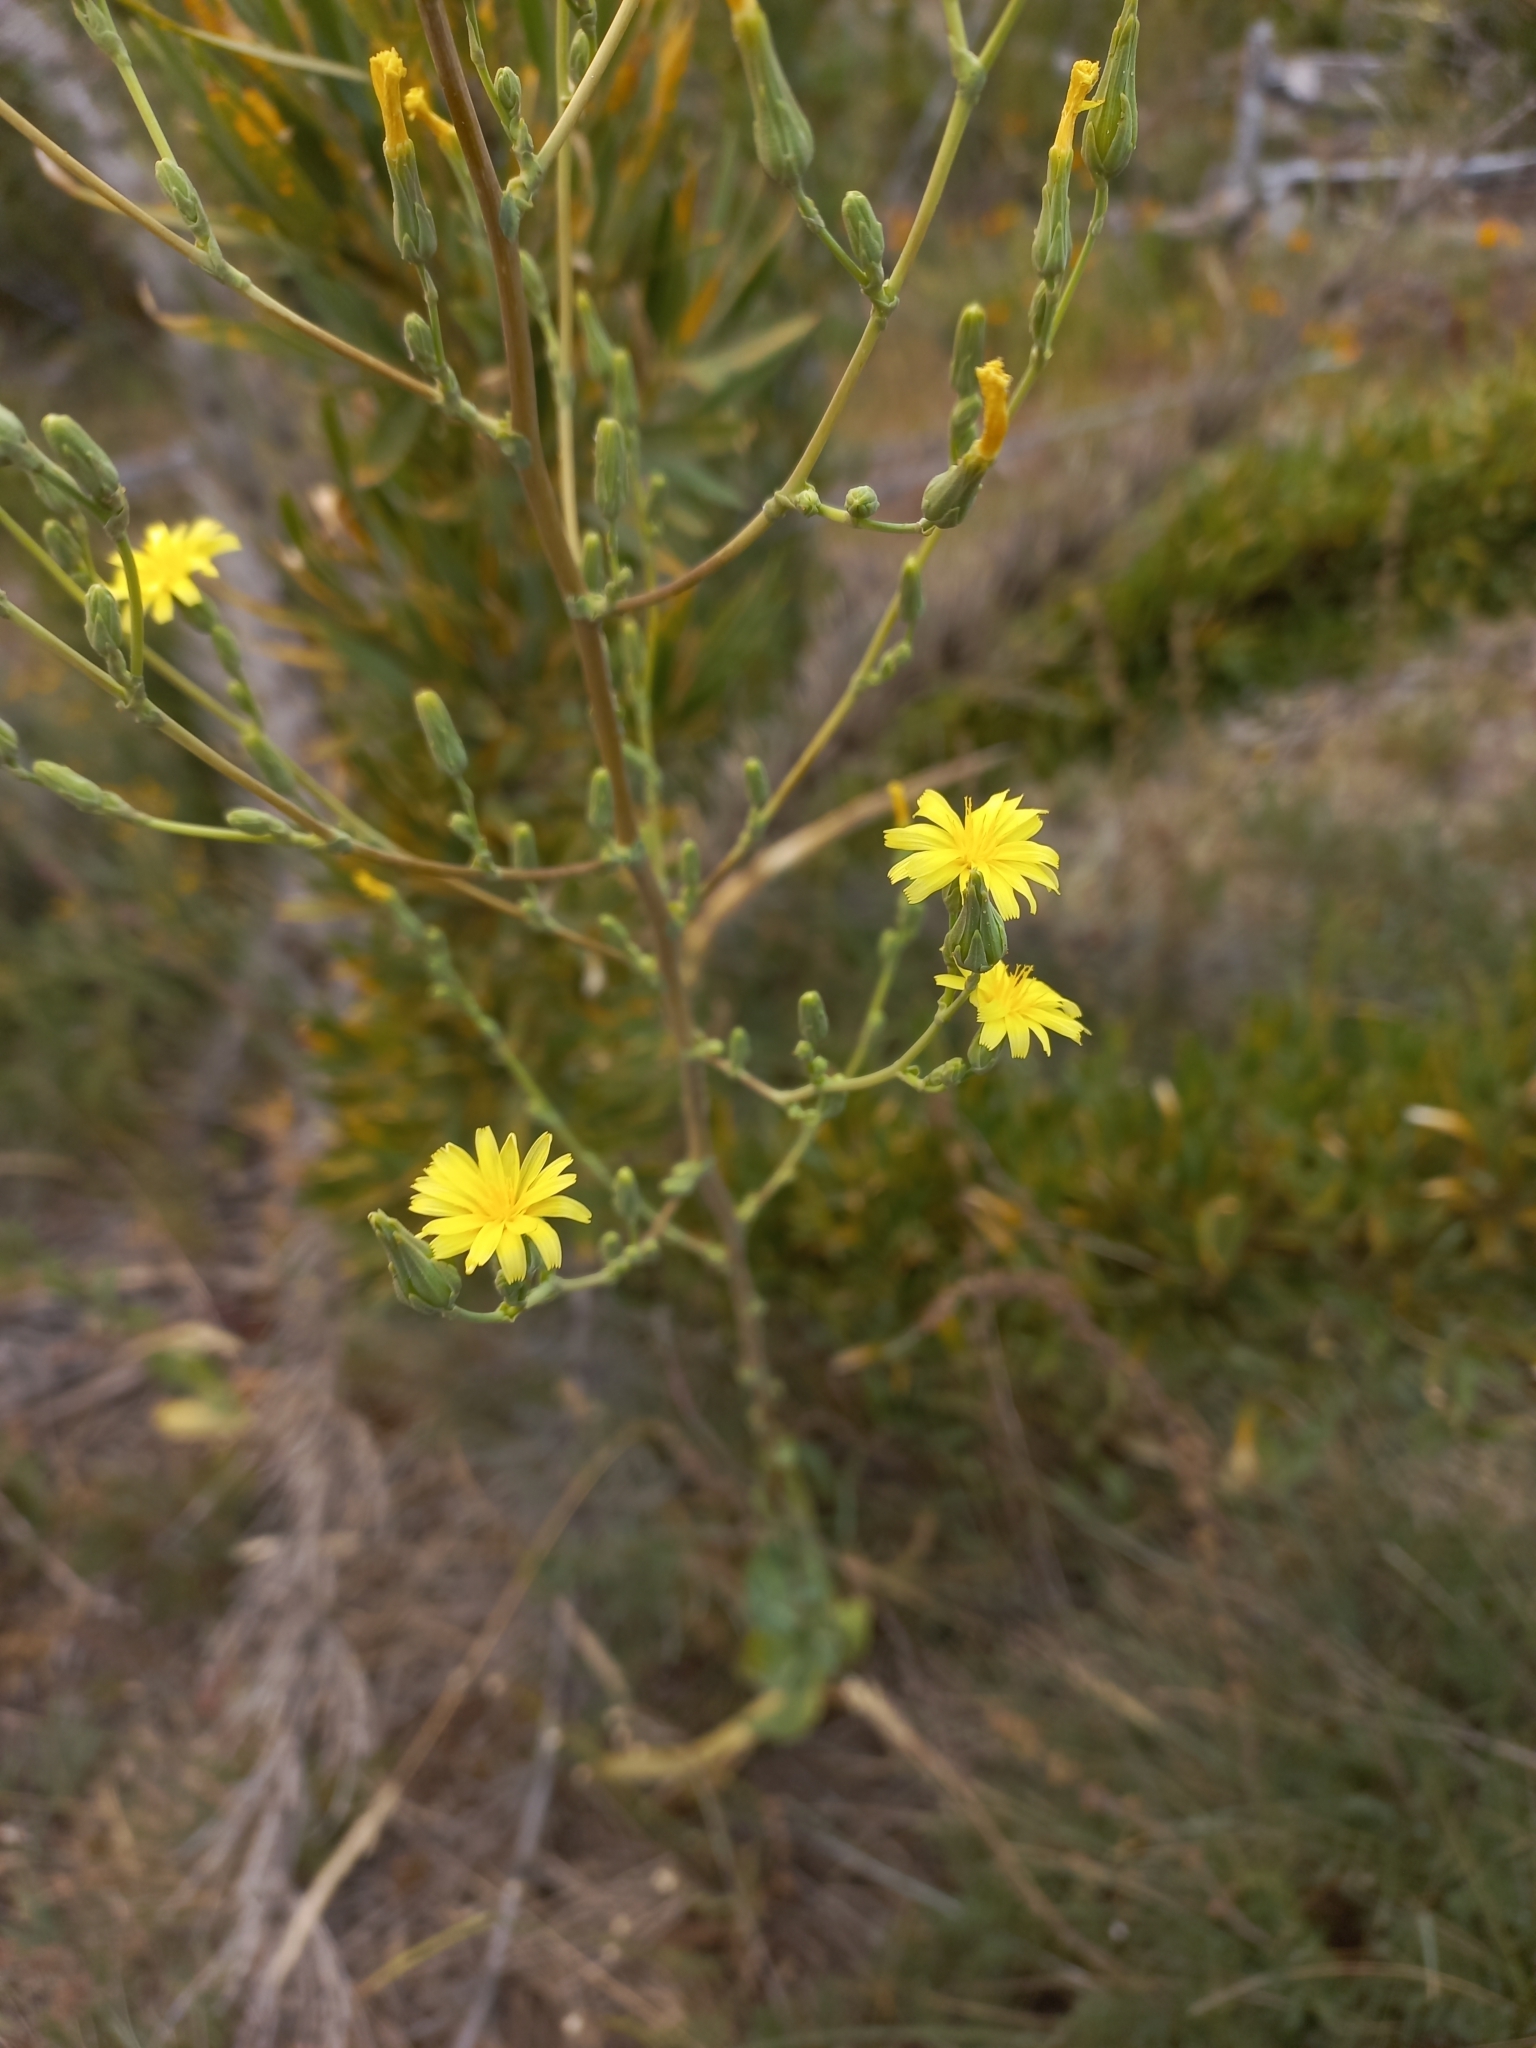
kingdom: Plantae
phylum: Tracheophyta
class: Magnoliopsida
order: Asterales
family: Asteraceae
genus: Lactuca
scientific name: Lactuca serriola
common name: Prickly lettuce
